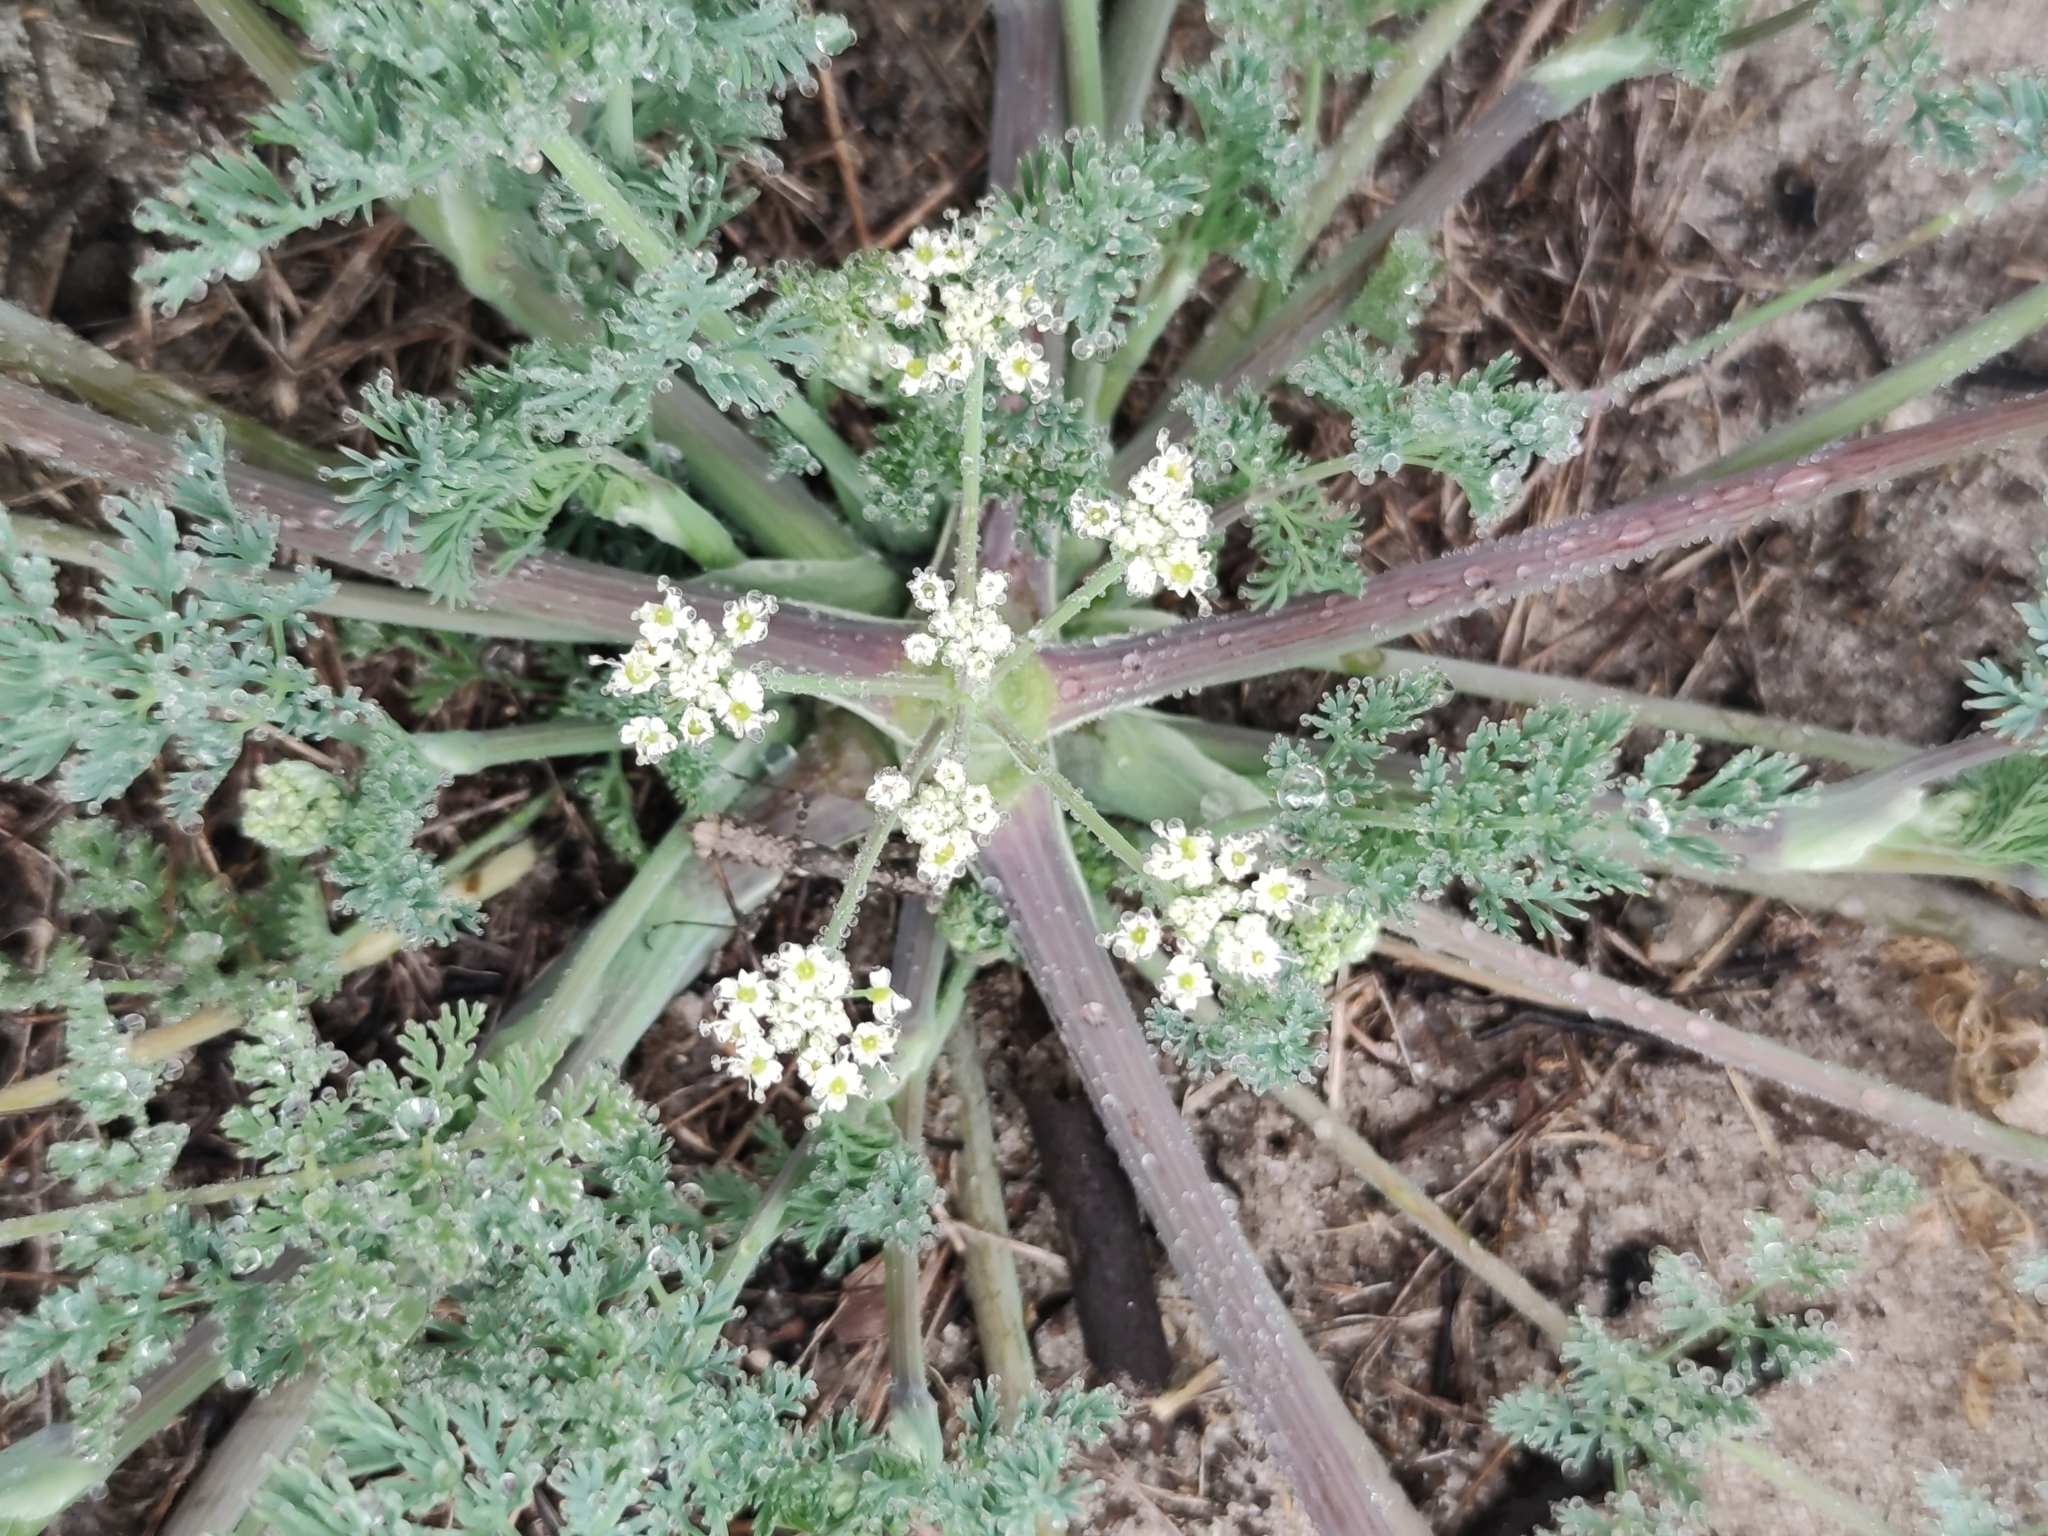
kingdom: Plantae
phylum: Tracheophyta
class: Magnoliopsida
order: Apiales
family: Apiaceae
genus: Capnophyllum
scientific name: Capnophyllum africanum
